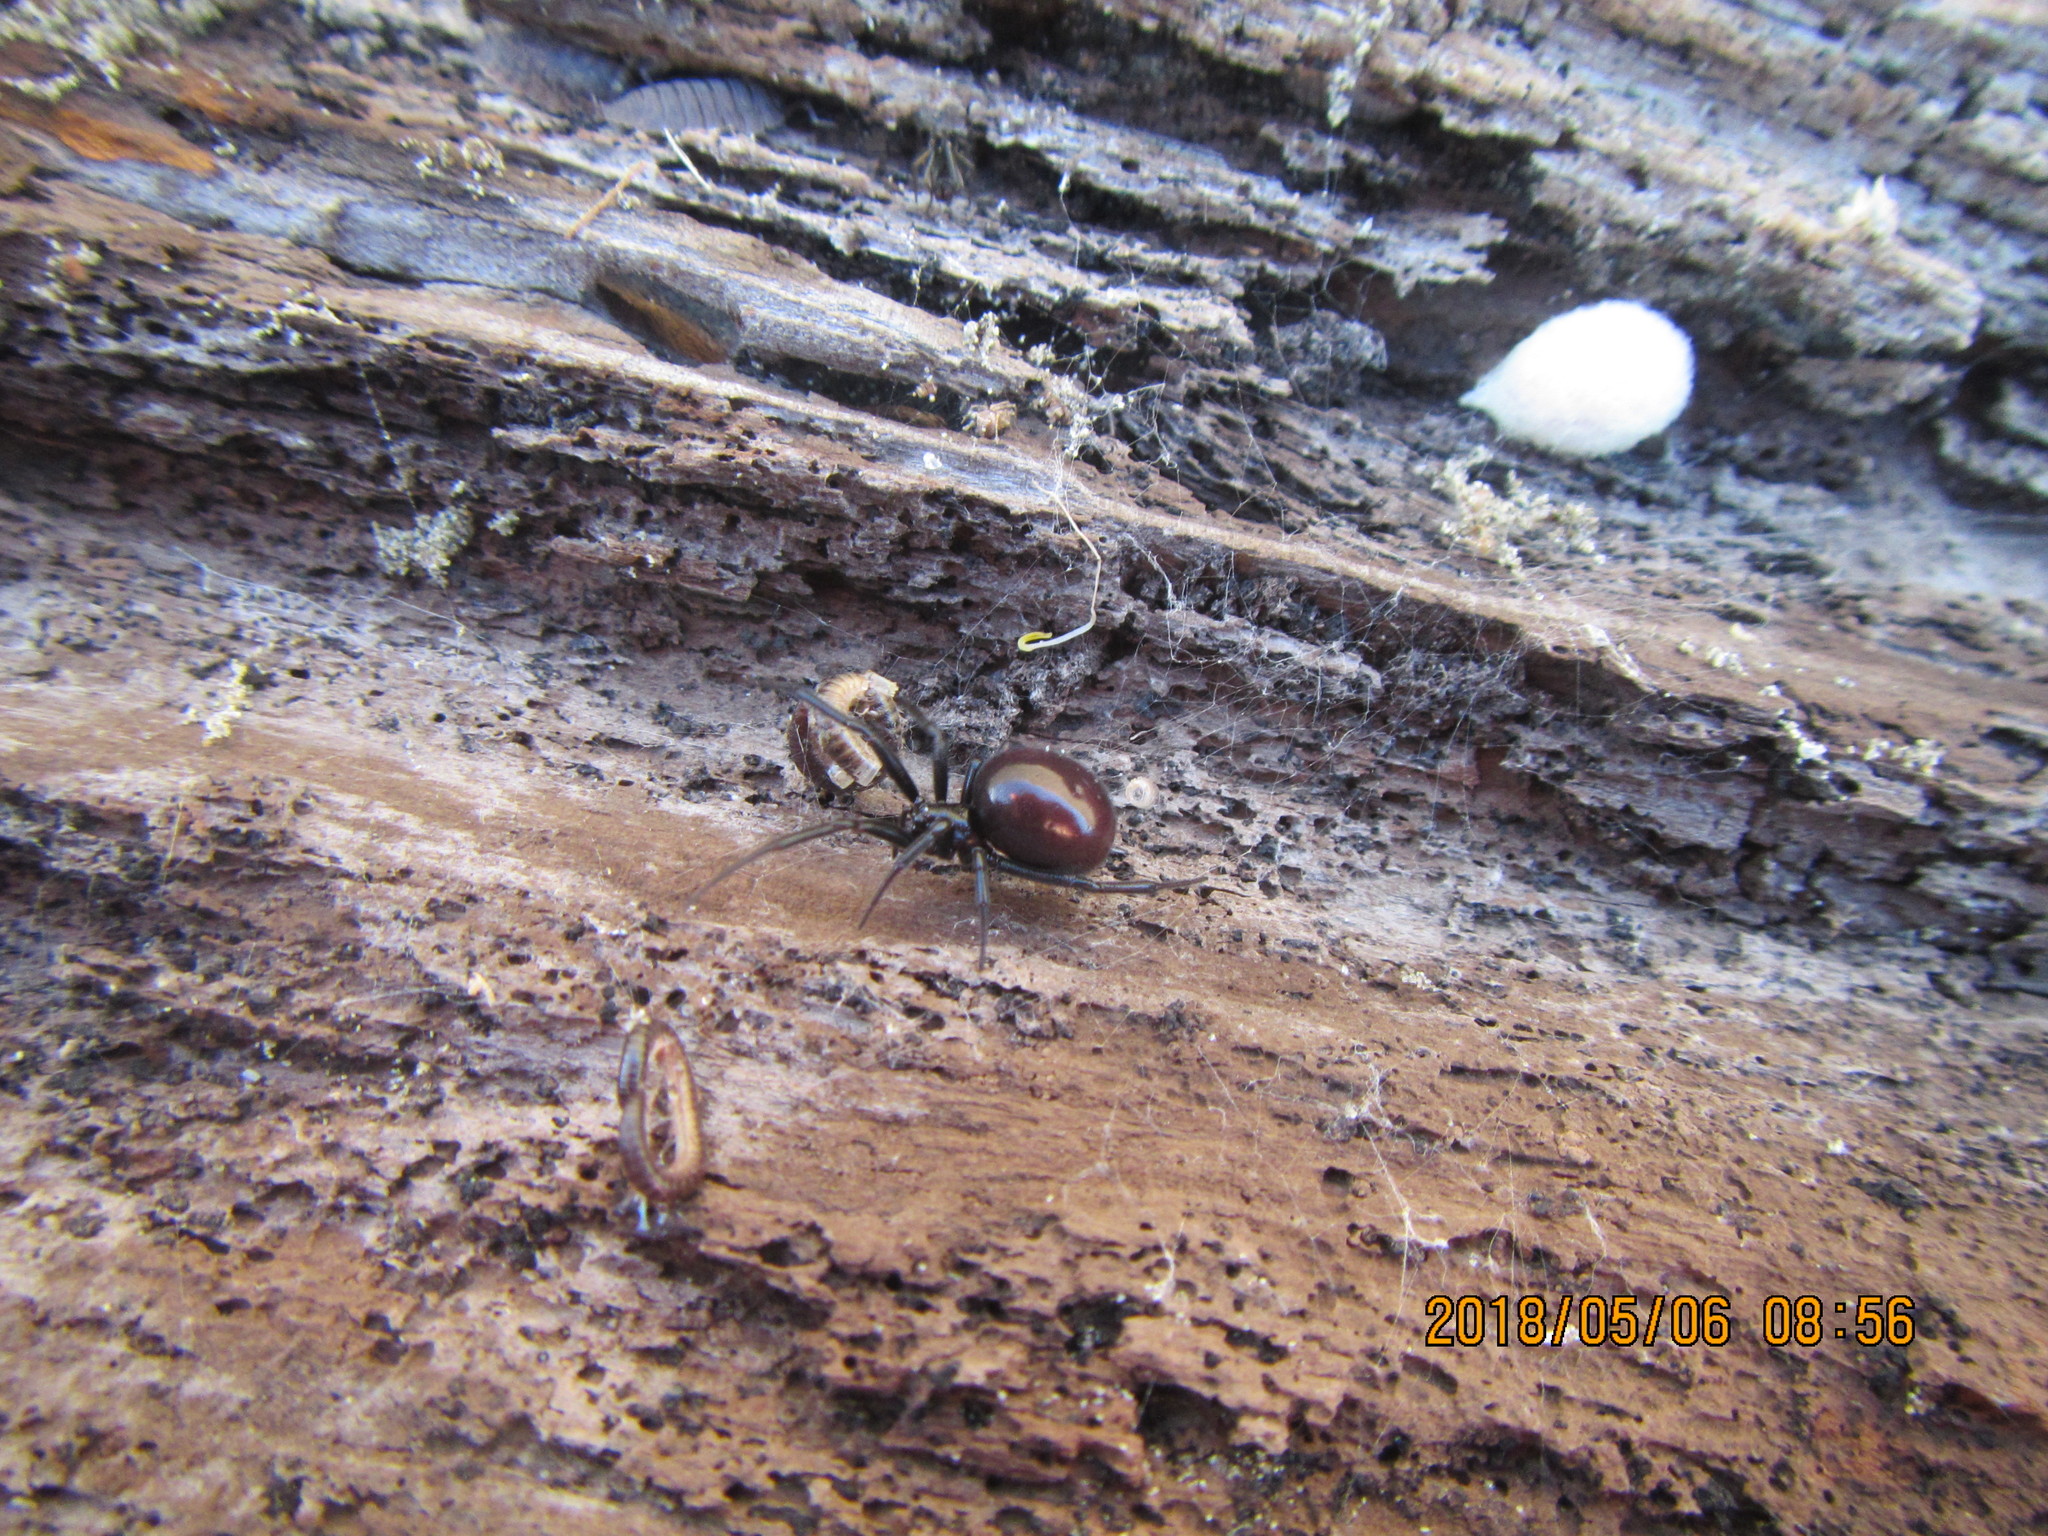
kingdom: Animalia
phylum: Arthropoda
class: Arachnida
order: Araneae
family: Theridiidae
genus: Steatoda
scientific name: Steatoda capensis
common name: Cobweb weaver
